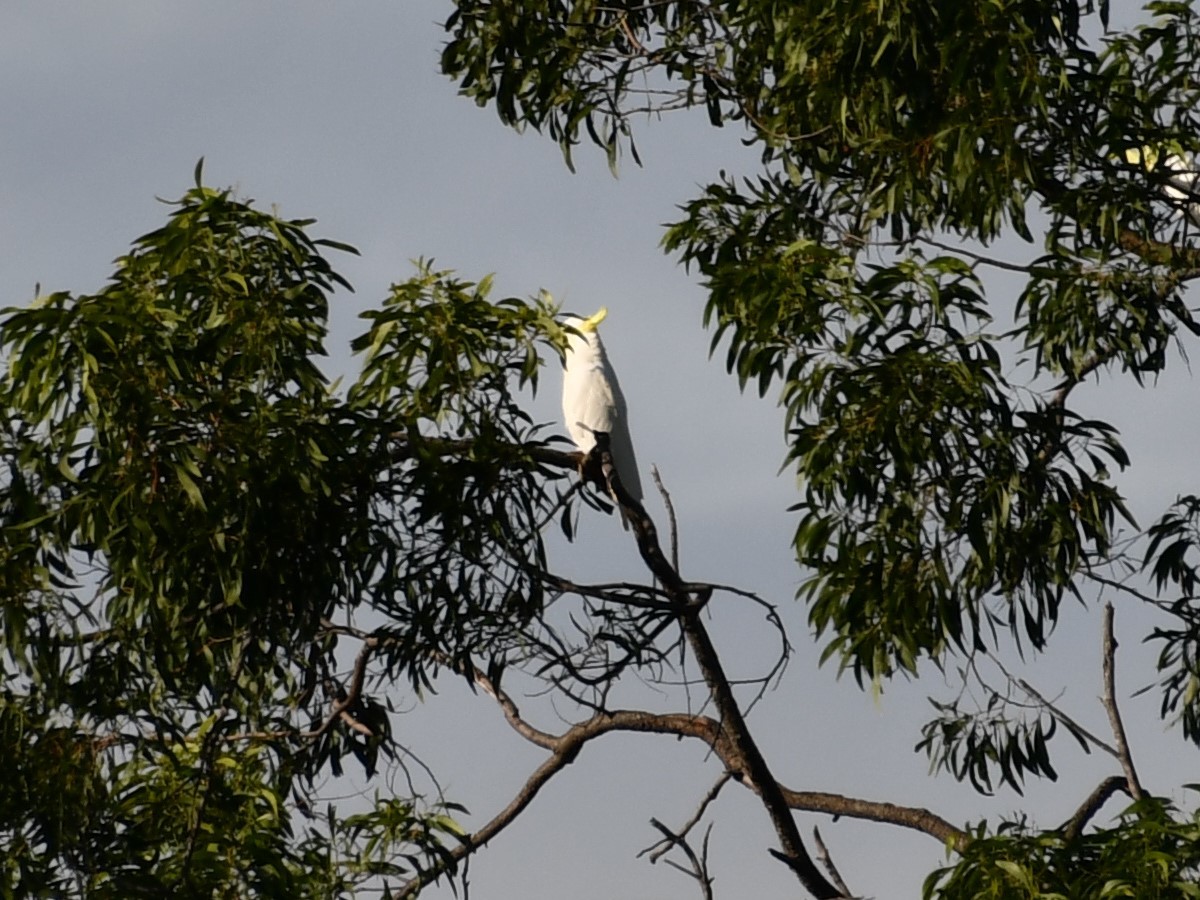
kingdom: Animalia
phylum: Chordata
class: Aves
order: Psittaciformes
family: Psittacidae
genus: Cacatua
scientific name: Cacatua galerita
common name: Sulphur-crested cockatoo
